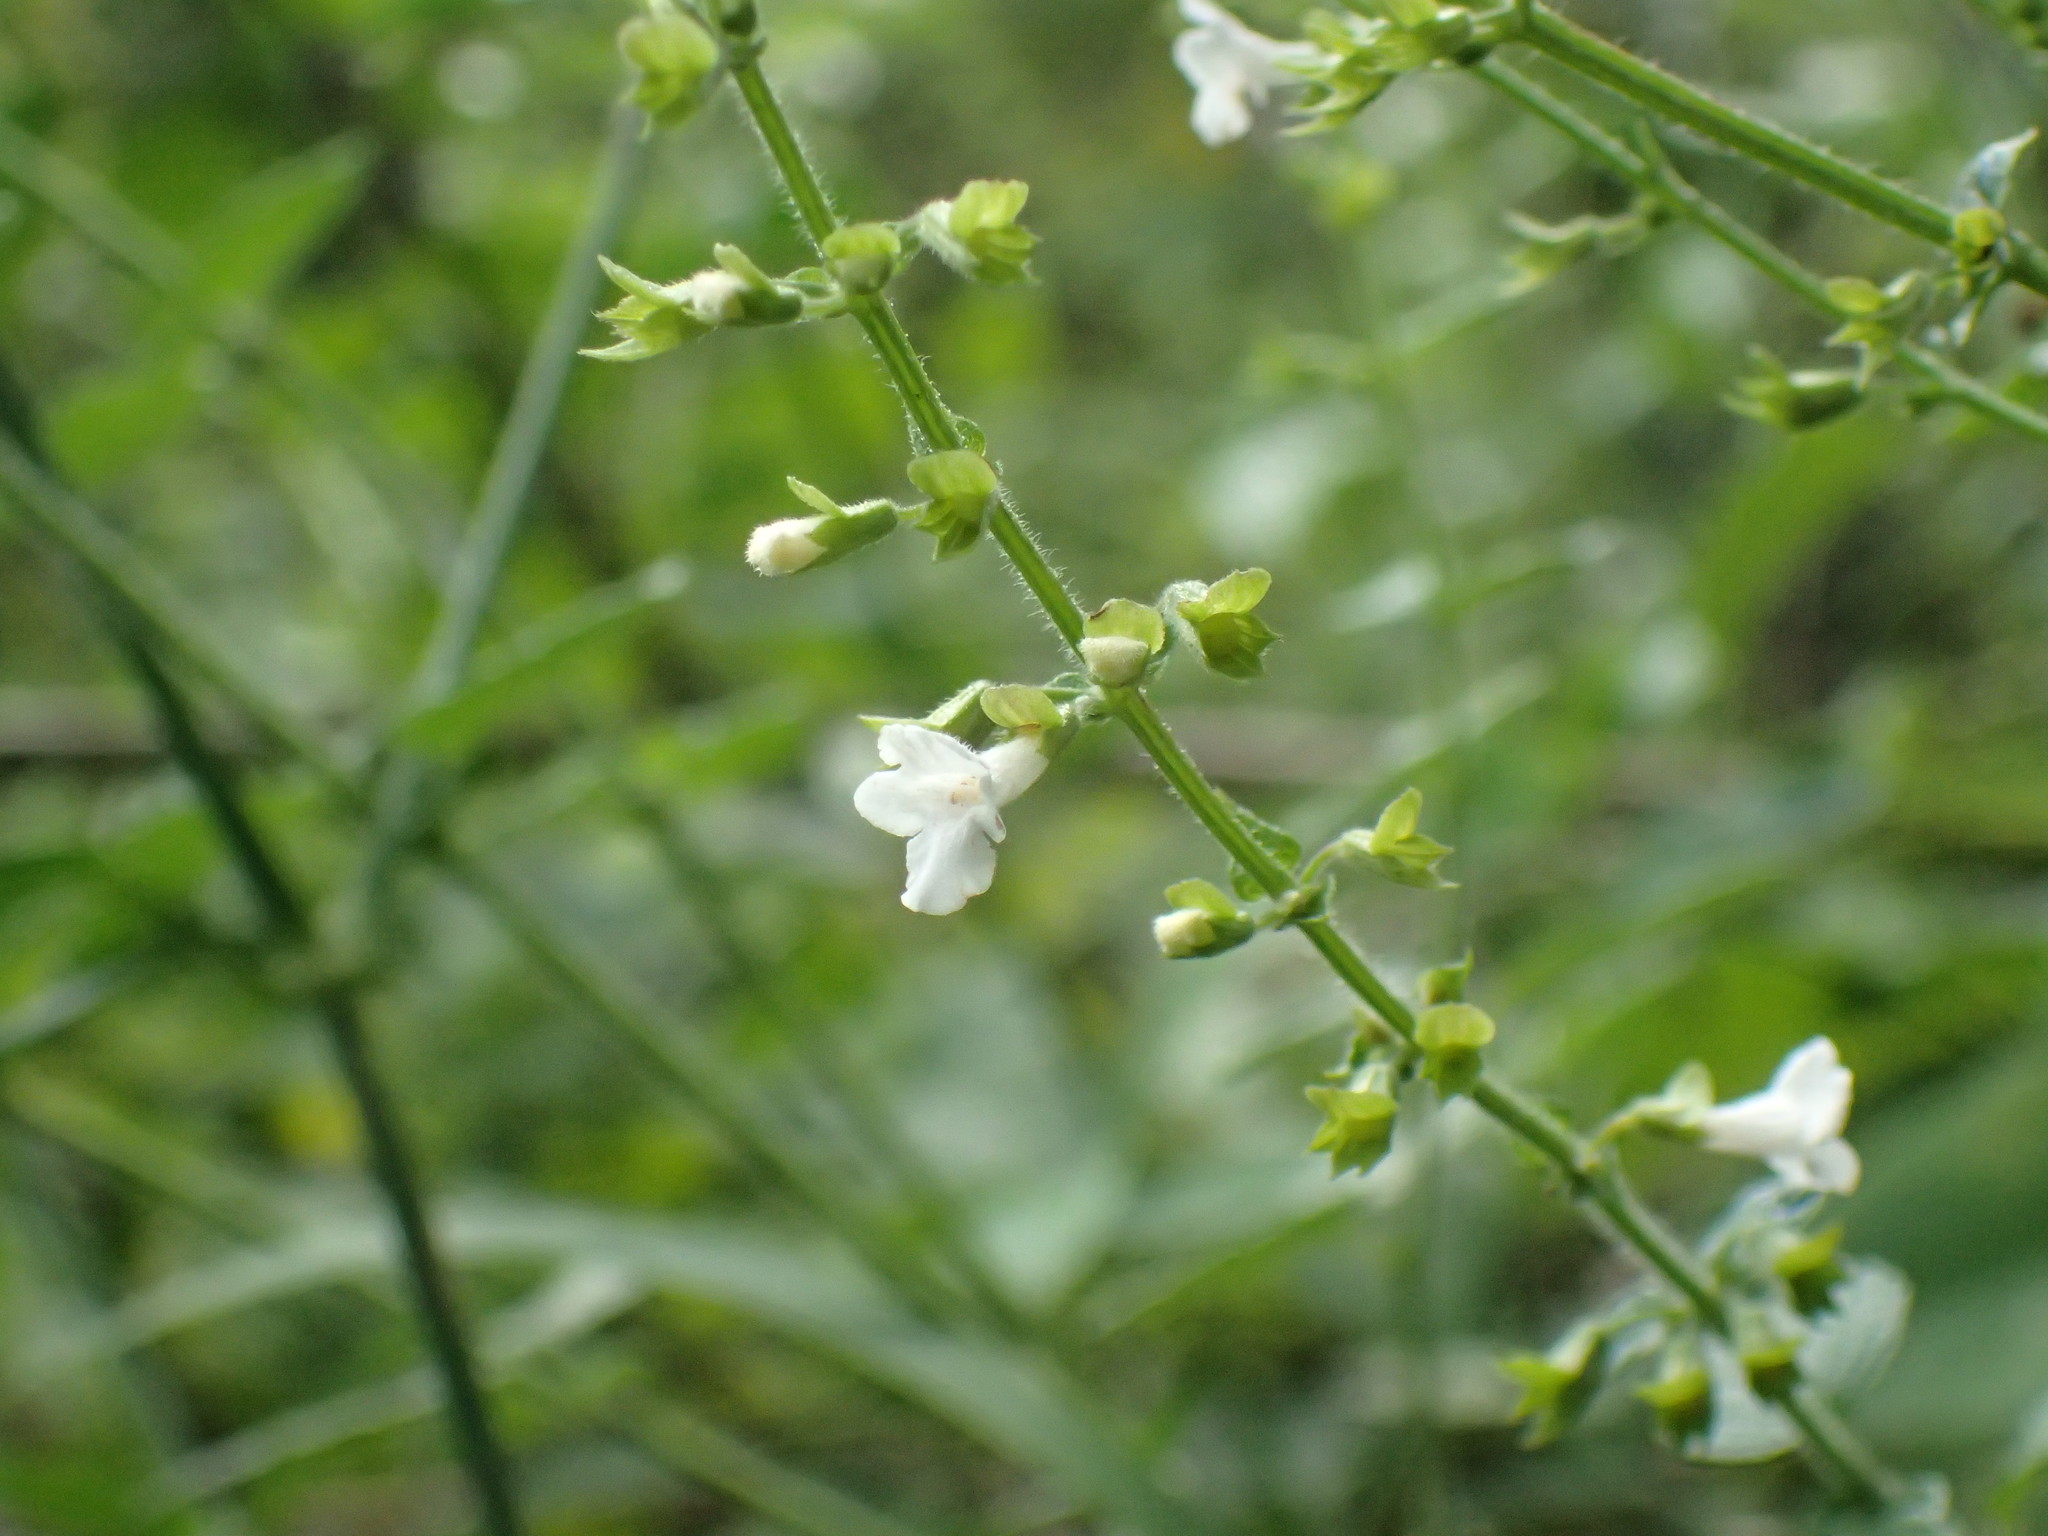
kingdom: Plantae
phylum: Tracheophyta
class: Magnoliopsida
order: Lamiales
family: Lamiaceae
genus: Endostemon
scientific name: Endostemon obtusifolius
